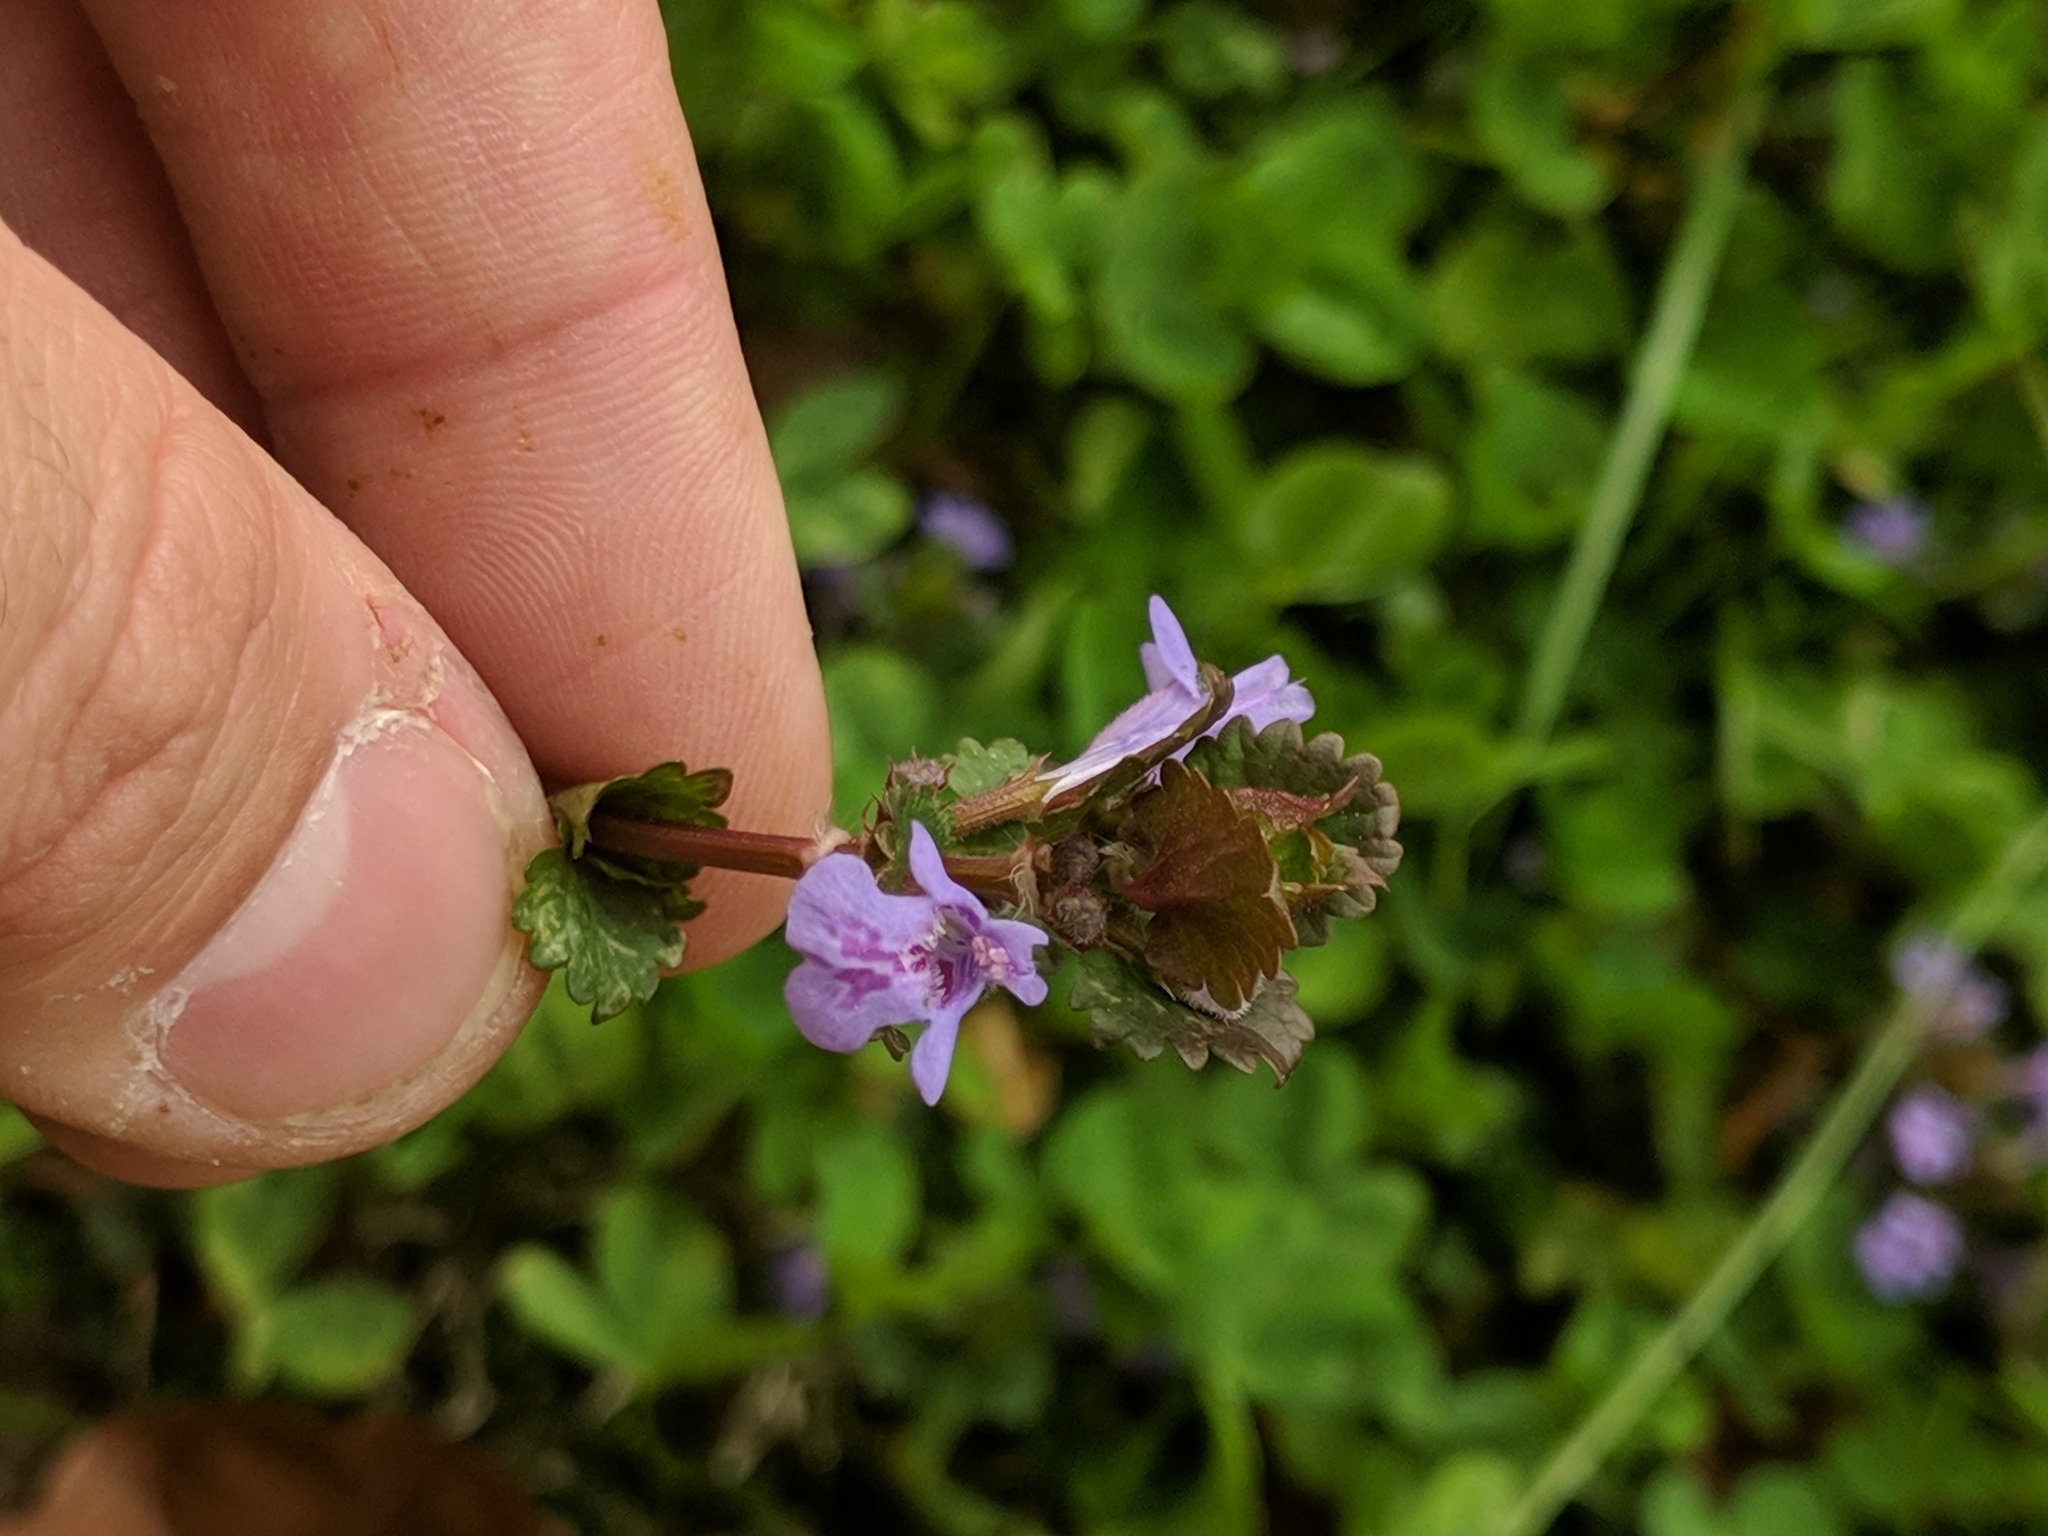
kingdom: Plantae
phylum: Tracheophyta
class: Magnoliopsida
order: Lamiales
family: Lamiaceae
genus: Glechoma
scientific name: Glechoma hederacea
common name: Ground ivy
